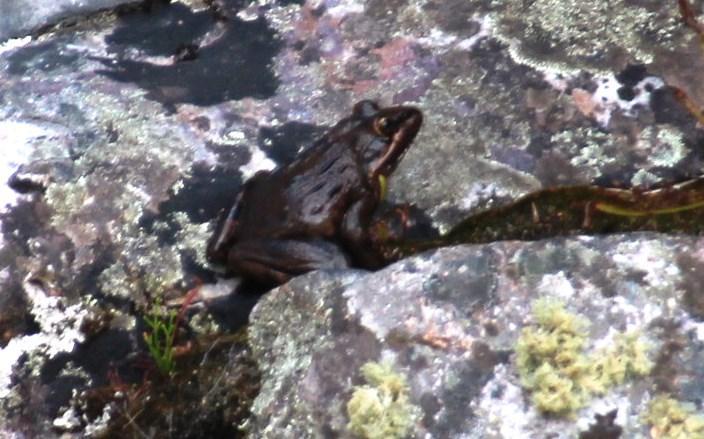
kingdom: Animalia
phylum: Chordata
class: Amphibia
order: Anura
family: Pyxicephalidae
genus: Amietia
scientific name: Amietia fuscigula
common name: Cape rana
